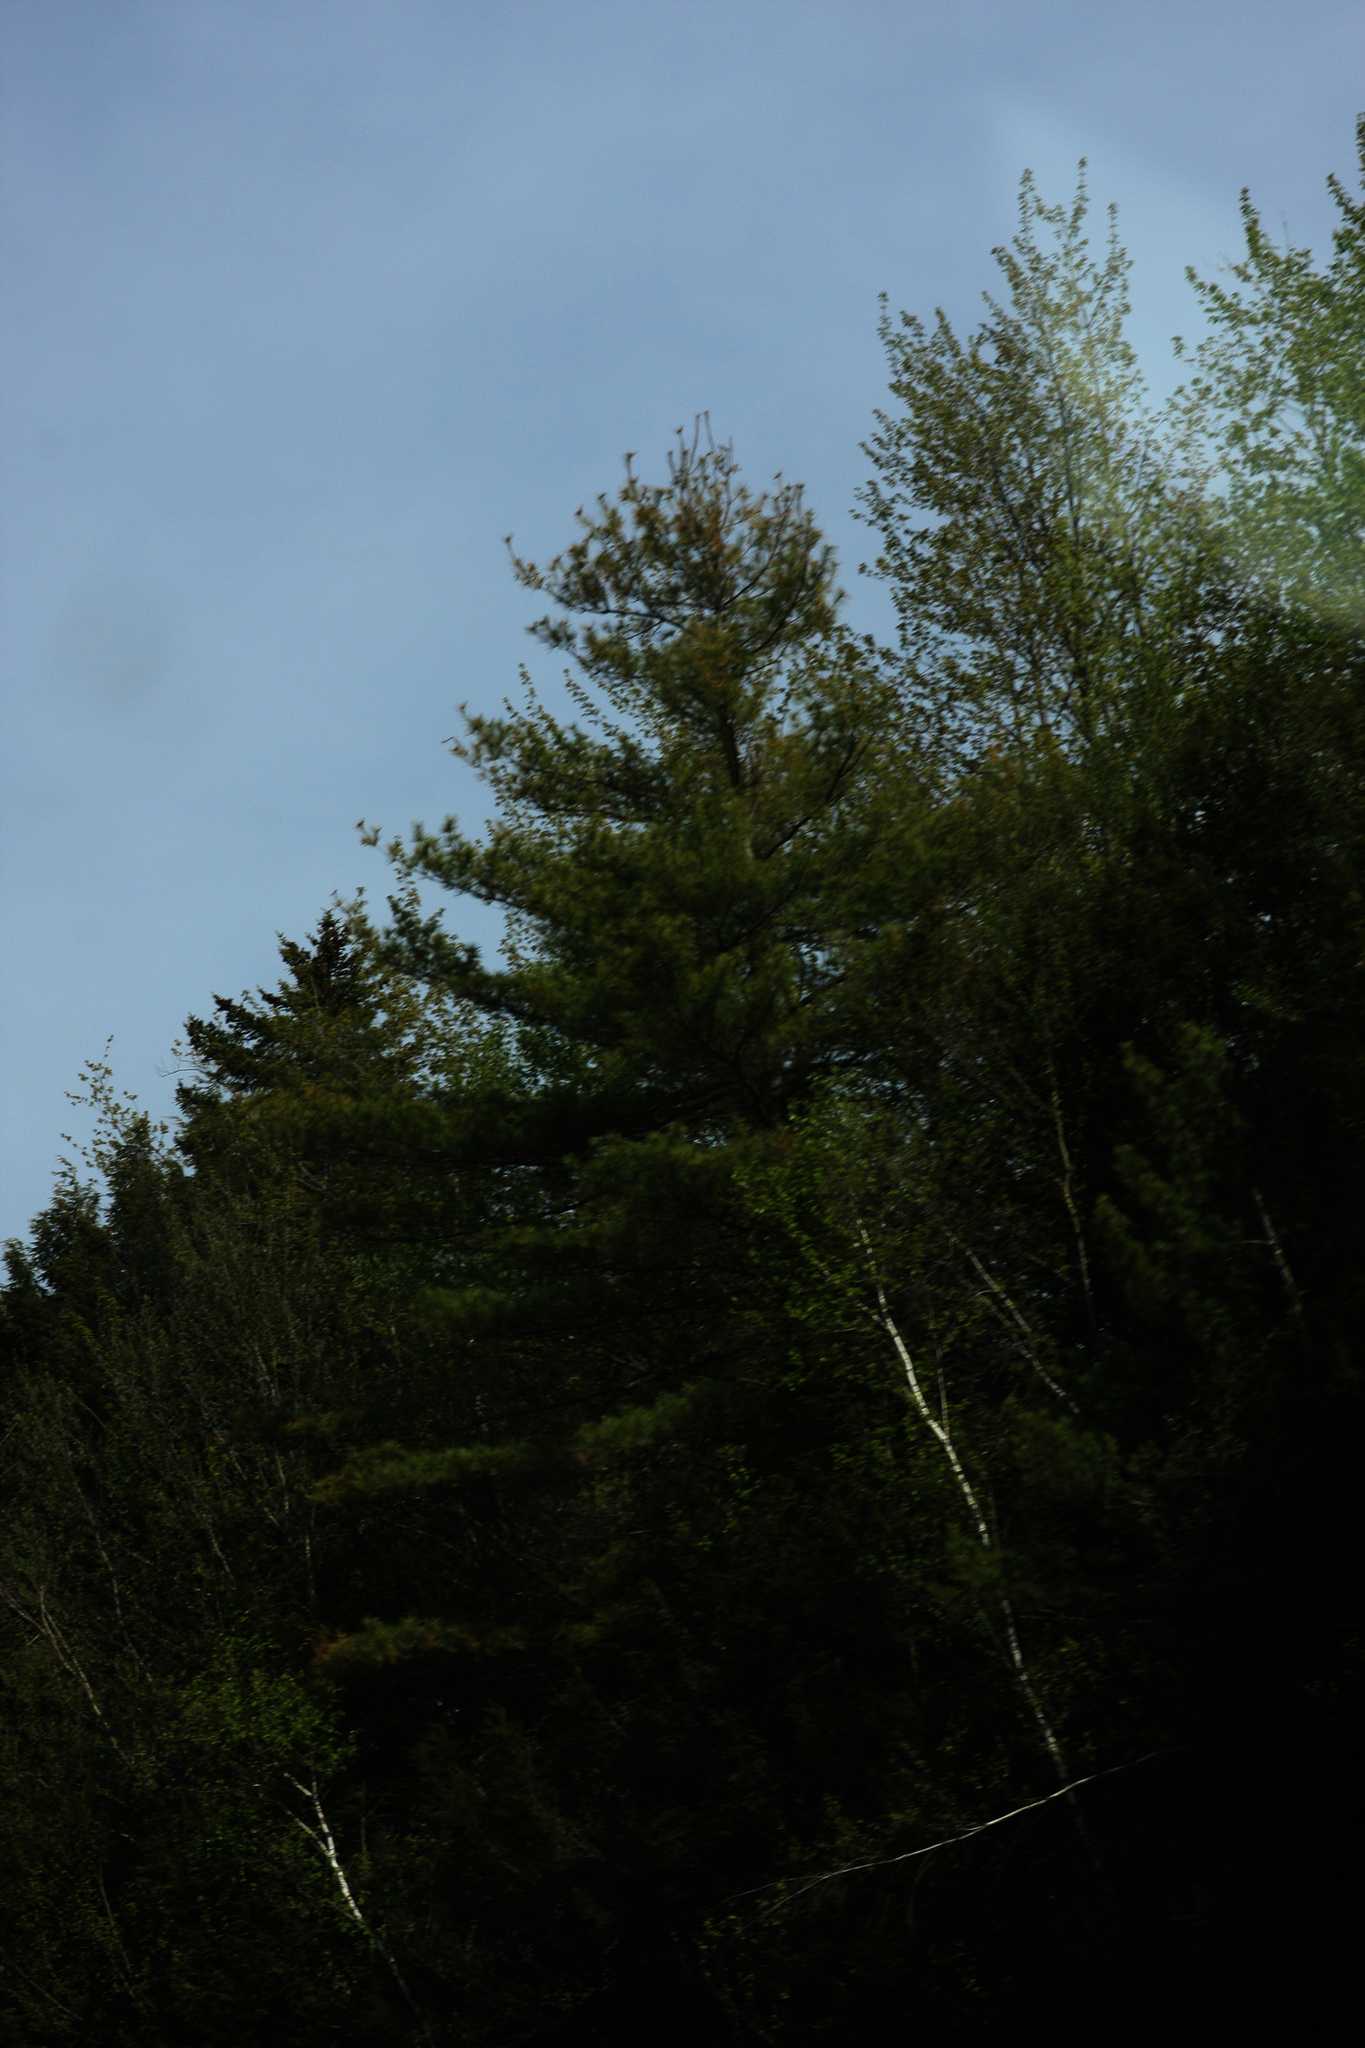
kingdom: Plantae
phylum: Tracheophyta
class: Pinopsida
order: Pinales
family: Pinaceae
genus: Pinus
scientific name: Pinus strobus
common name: Weymouth pine
